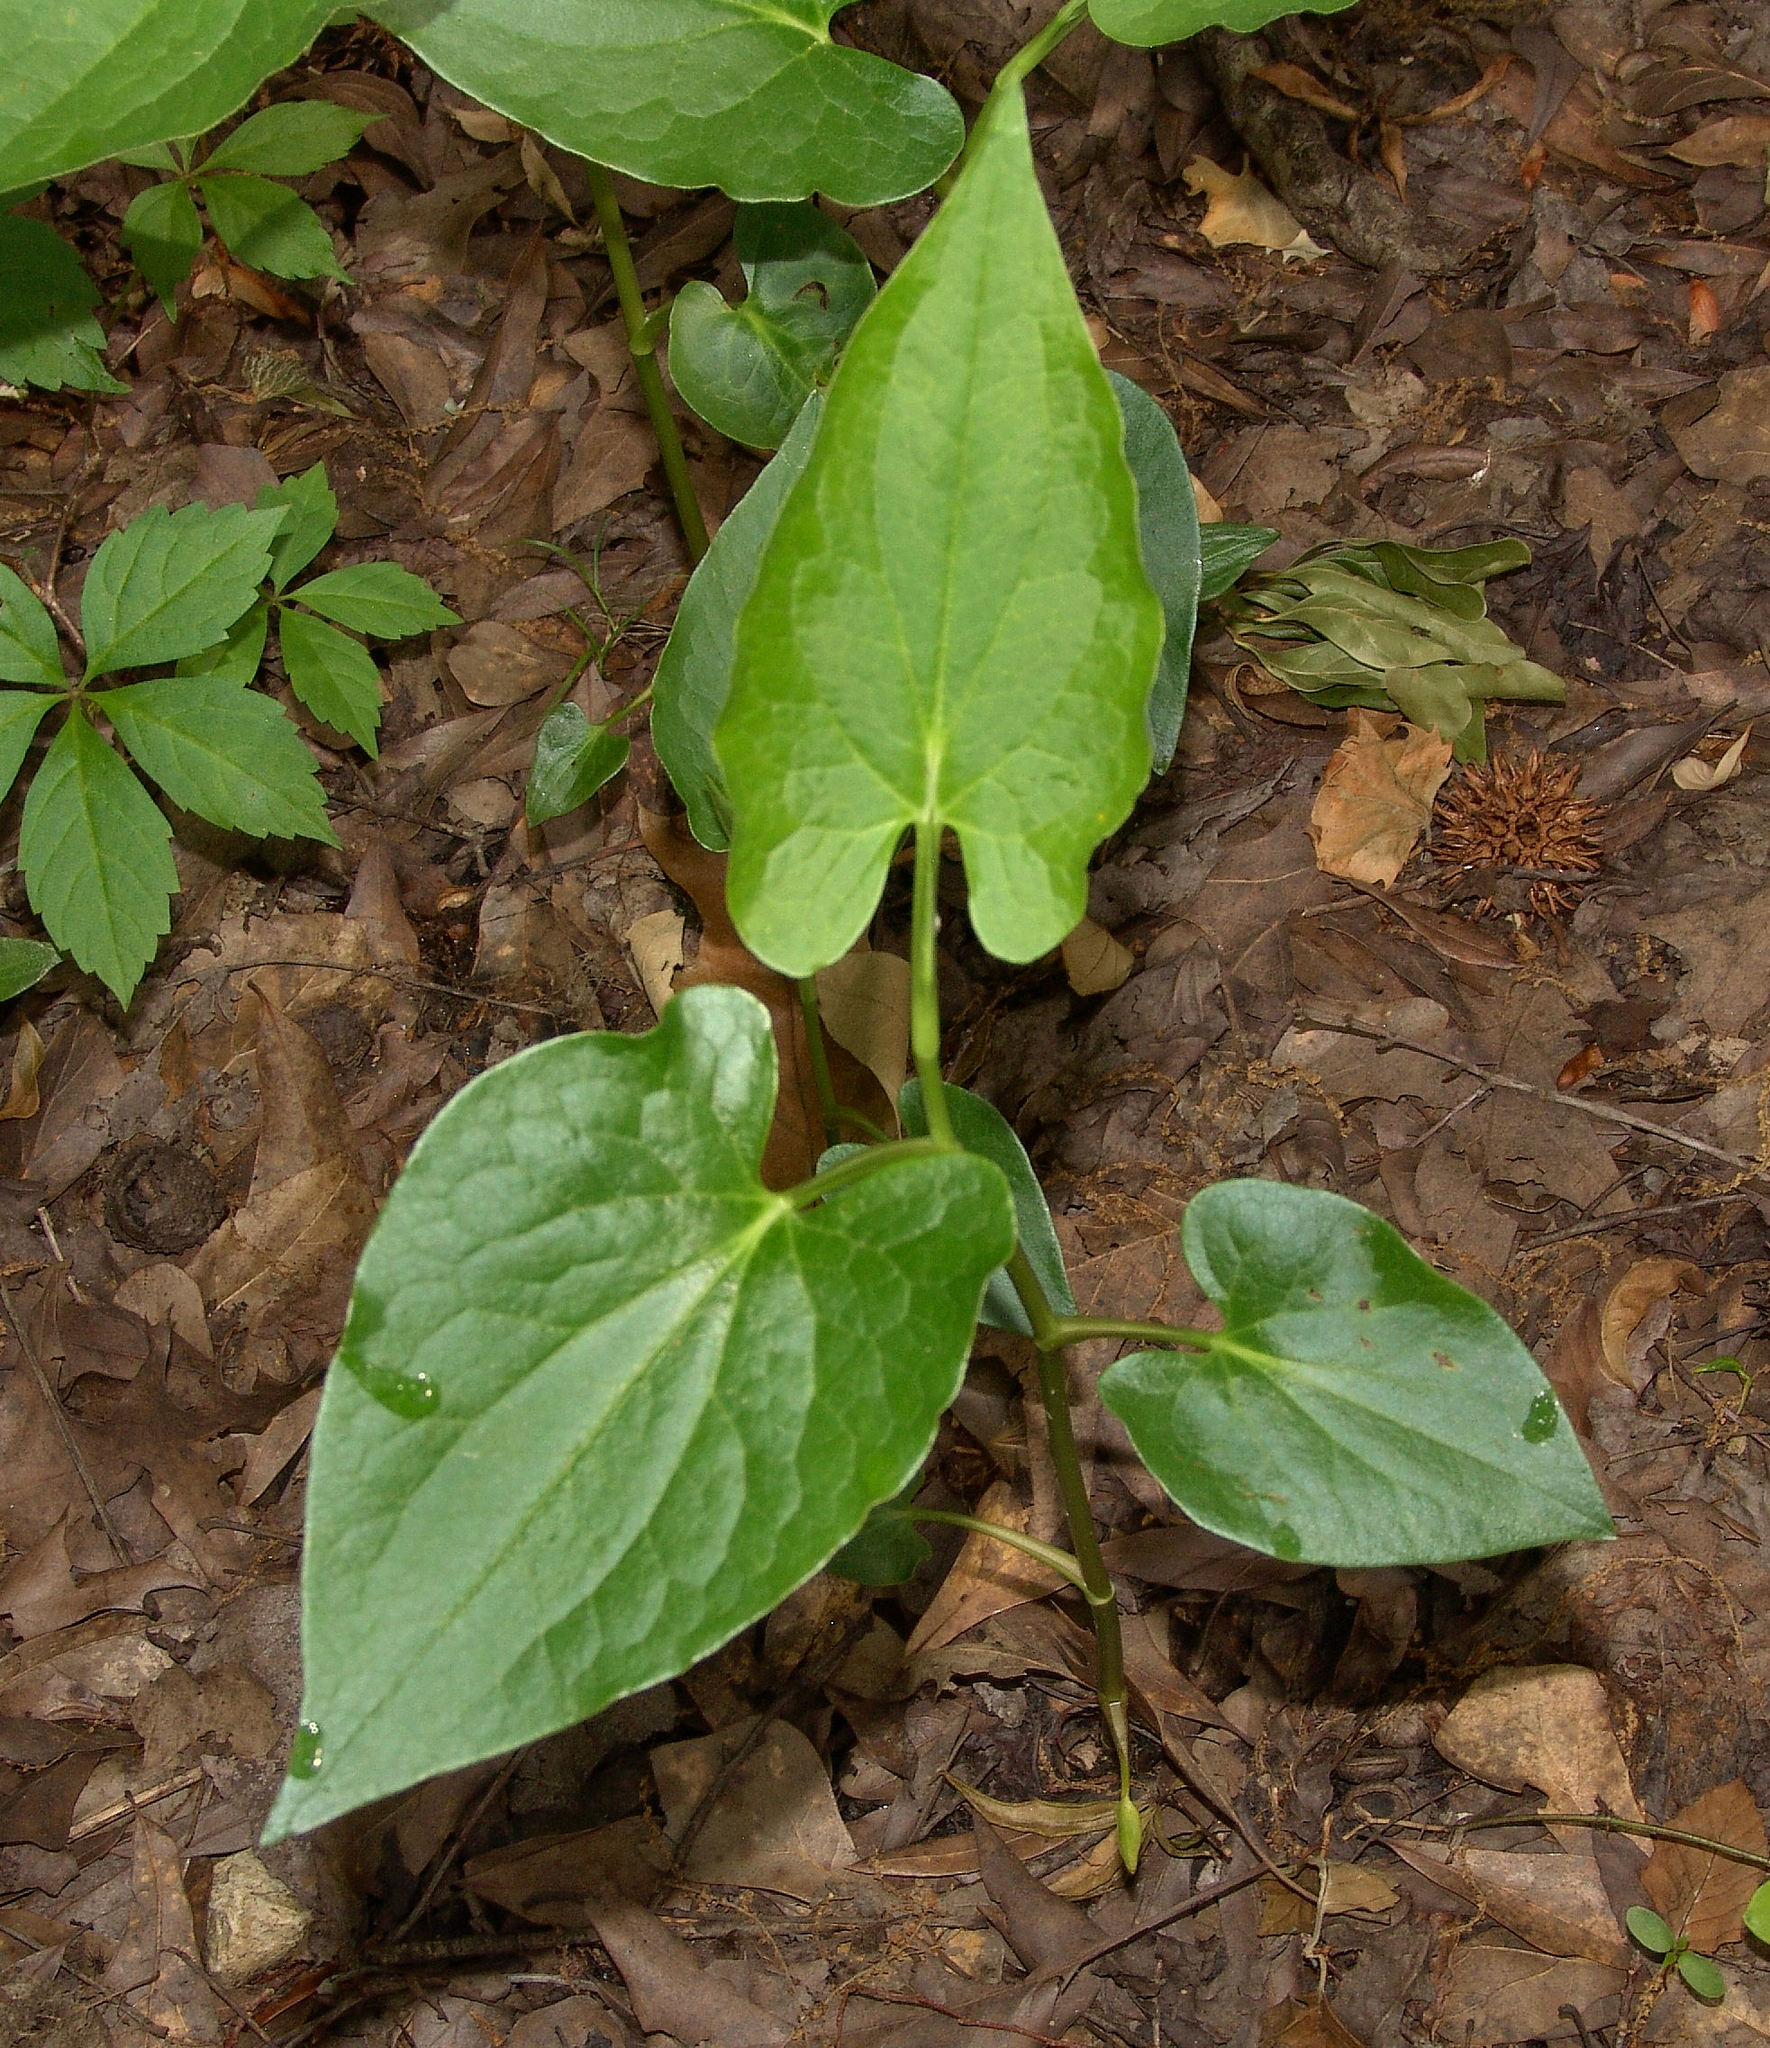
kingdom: Plantae
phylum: Tracheophyta
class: Magnoliopsida
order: Piperales
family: Saururaceae
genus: Saururus
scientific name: Saururus cernuus
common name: Lizard's-tail
